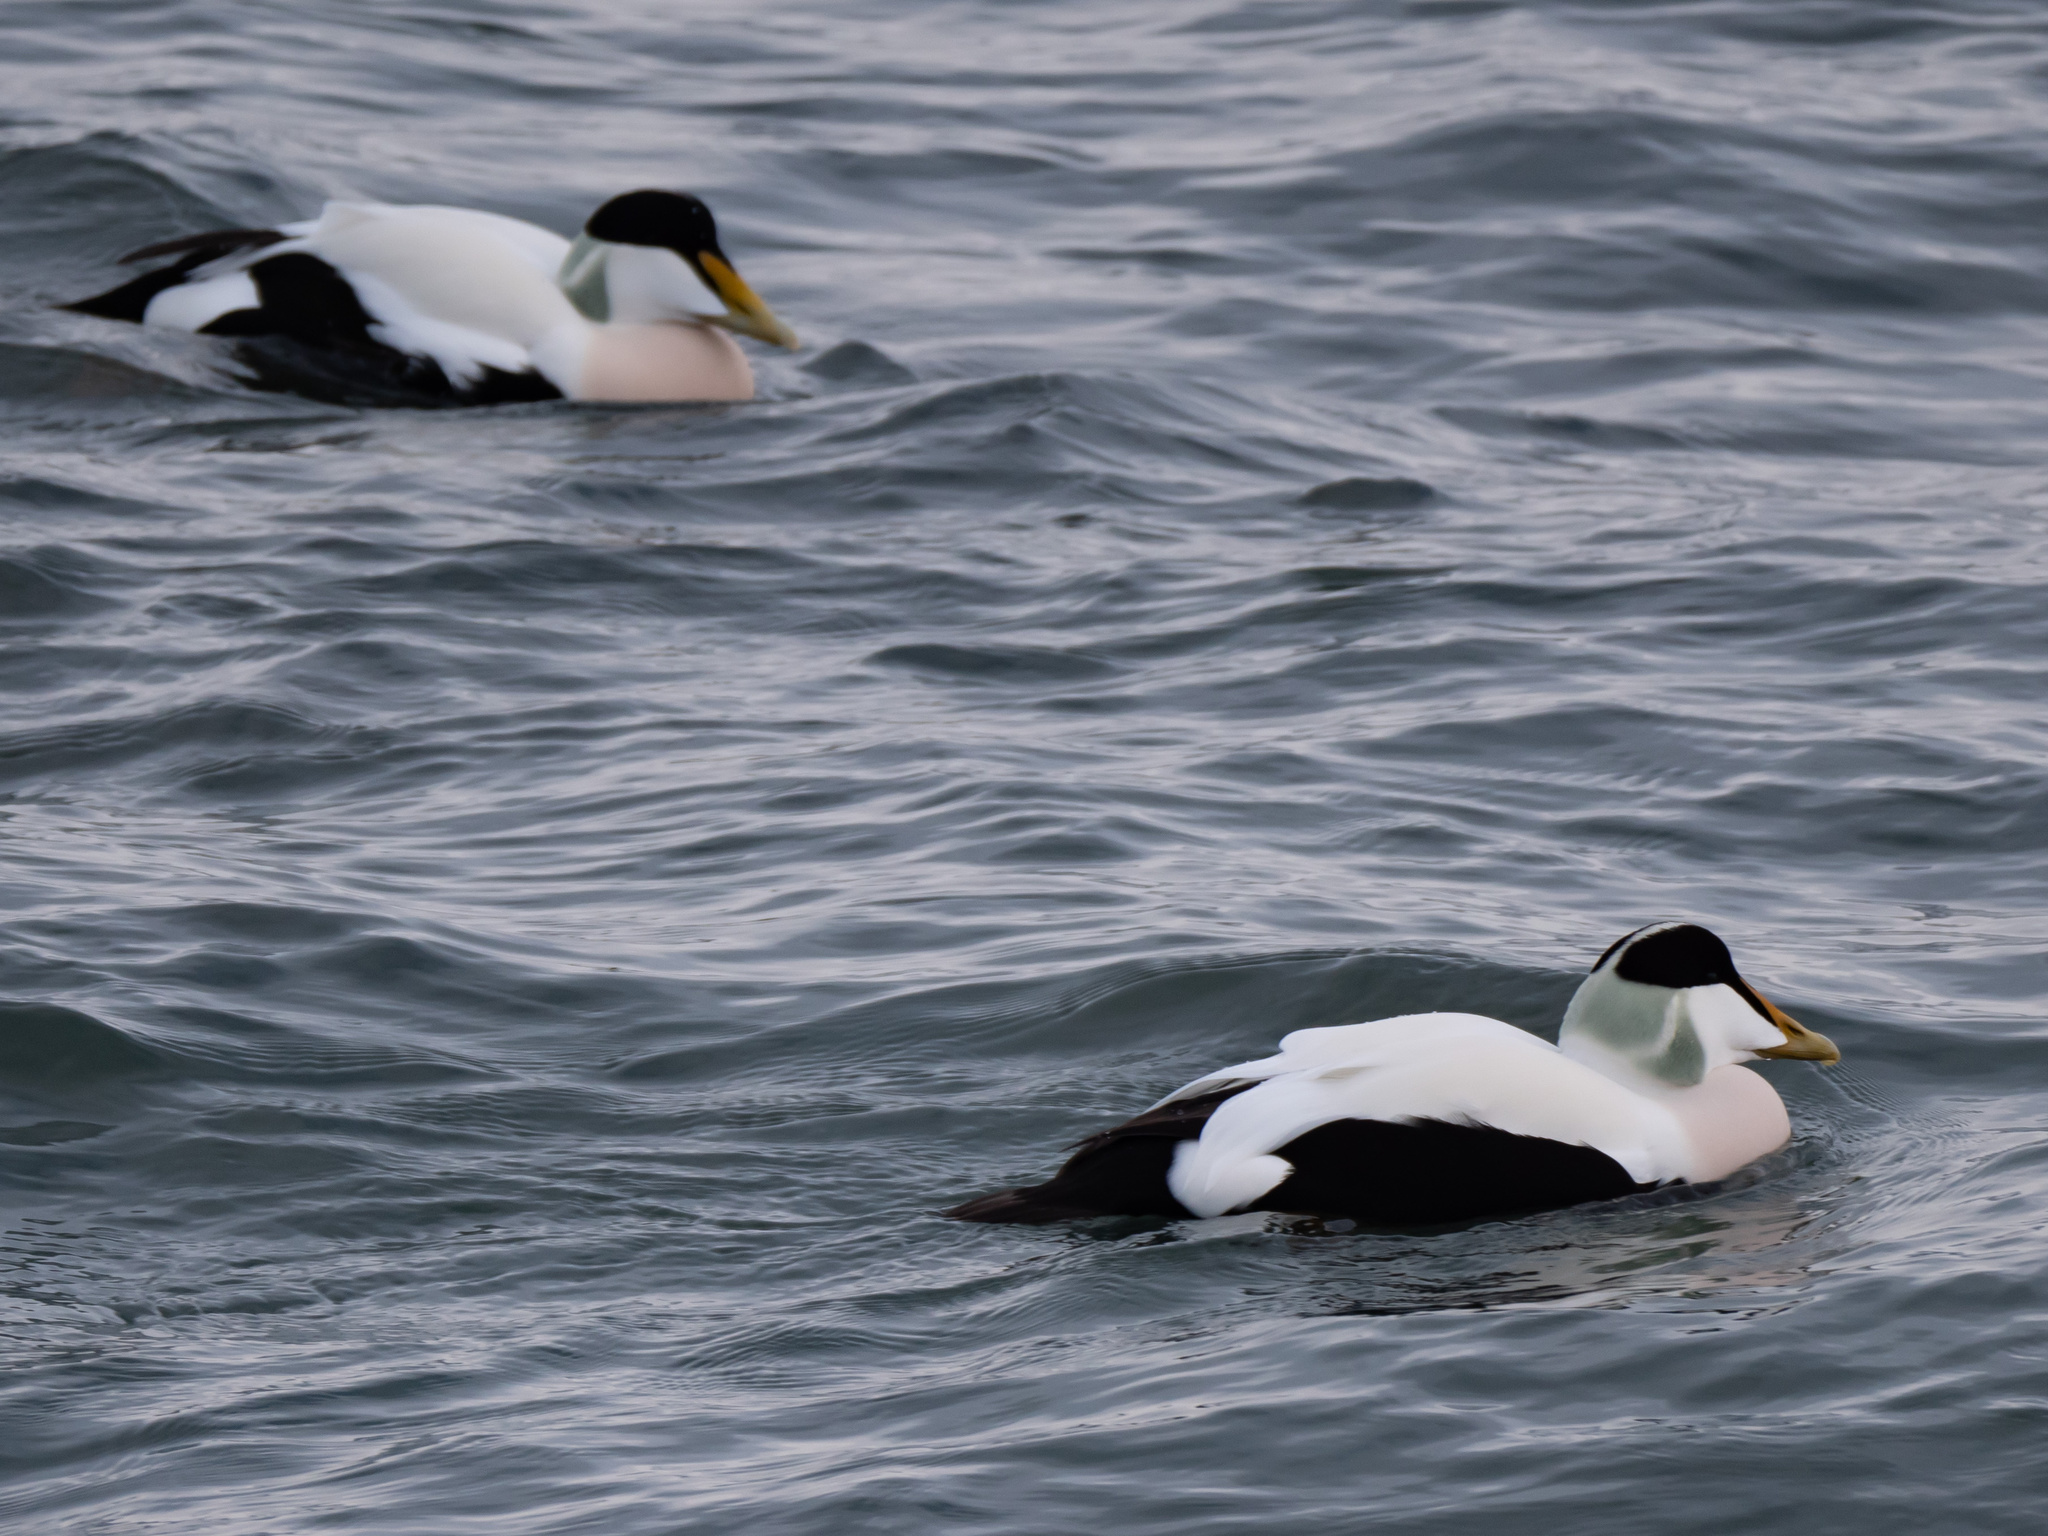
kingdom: Animalia
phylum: Chordata
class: Aves
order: Anseriformes
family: Anatidae
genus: Somateria
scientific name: Somateria mollissima
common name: Common eider
